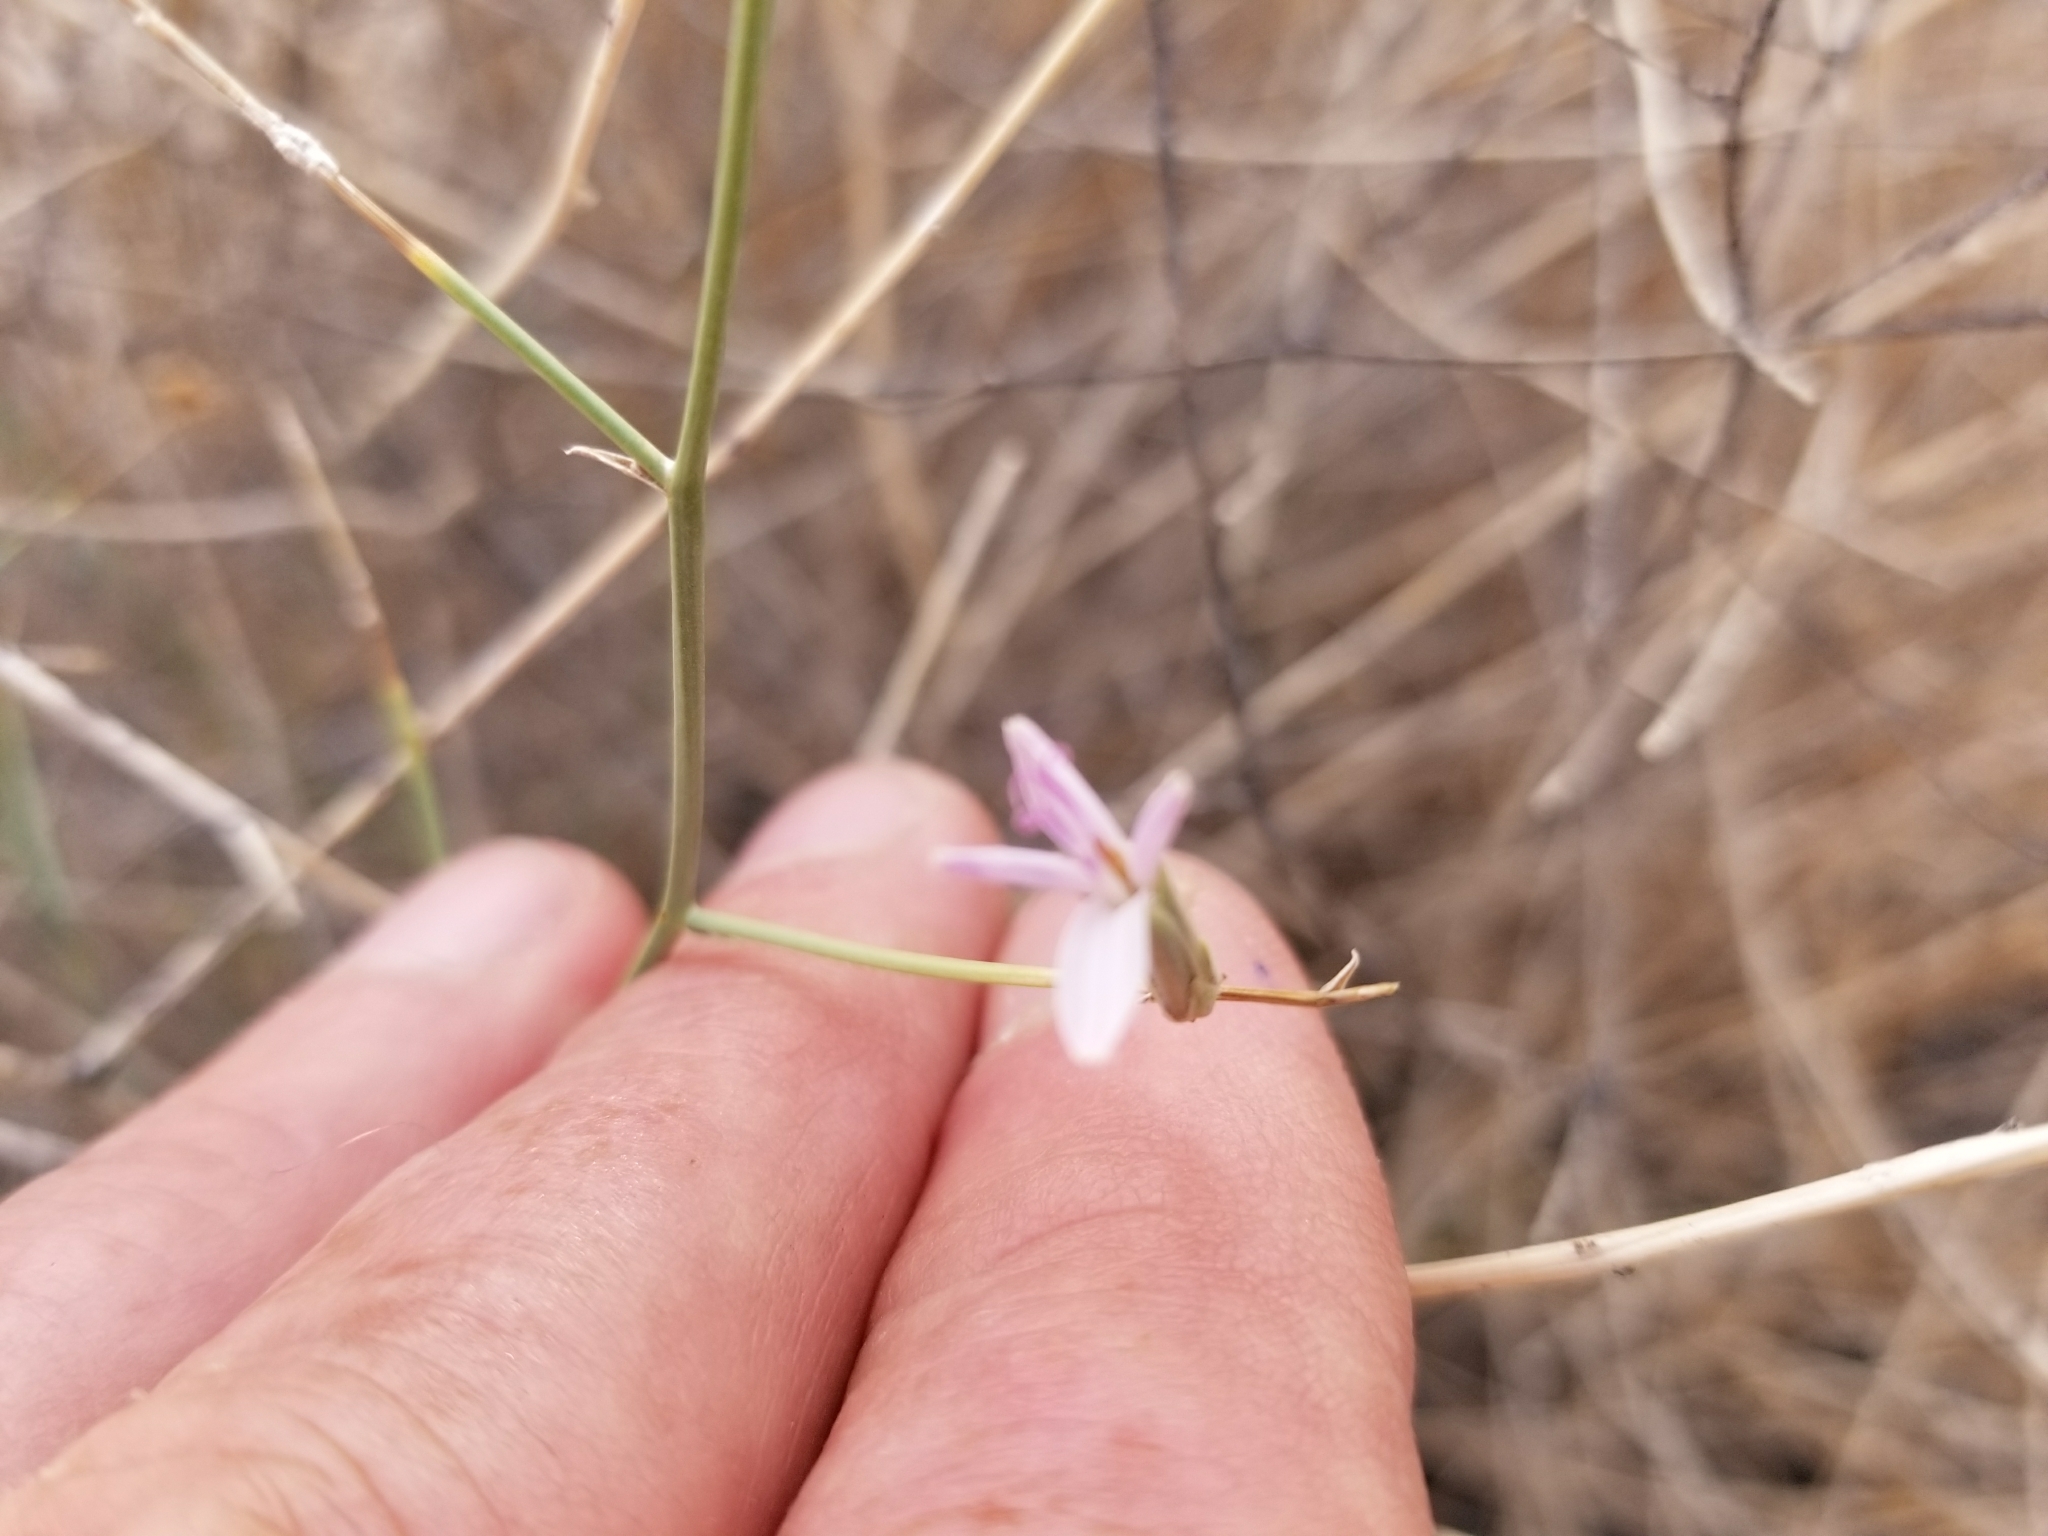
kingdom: Plantae
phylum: Tracheophyta
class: Magnoliopsida
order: Asterales
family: Asteraceae
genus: Stephanomeria
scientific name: Stephanomeria pauciflora
